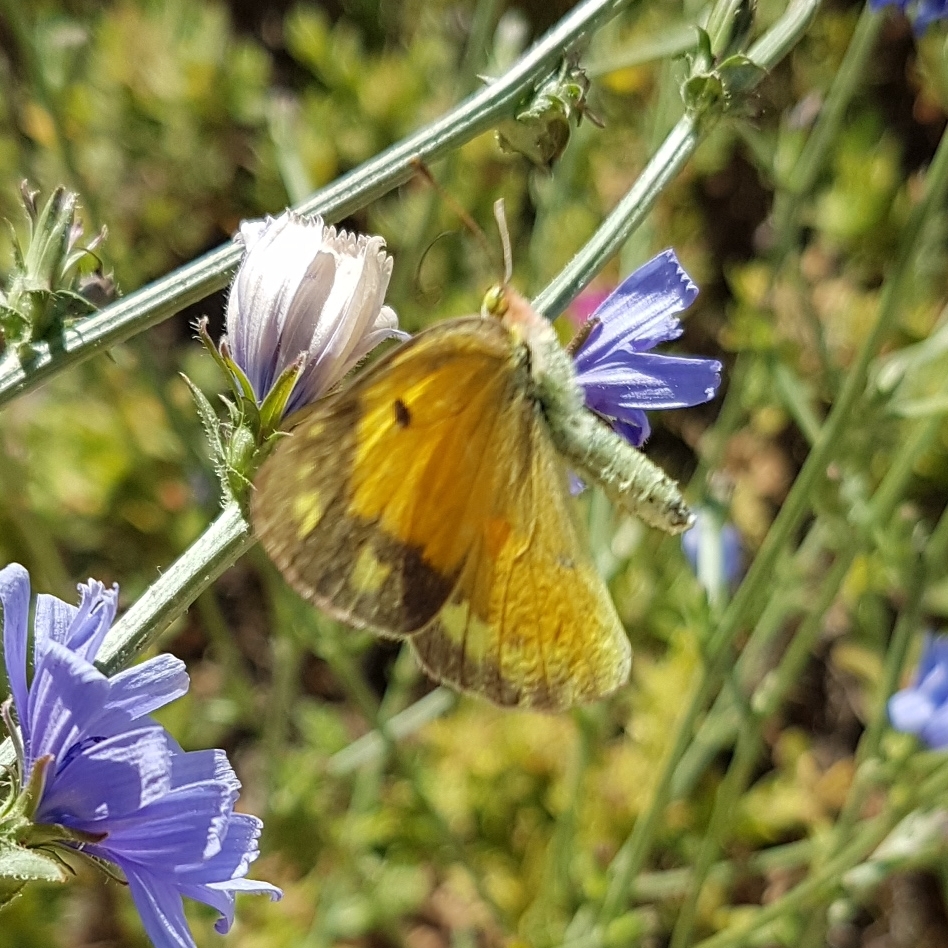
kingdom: Animalia
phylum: Arthropoda
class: Insecta
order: Lepidoptera
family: Pieridae
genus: Colias
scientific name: Colias croceus
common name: Clouded yellow
